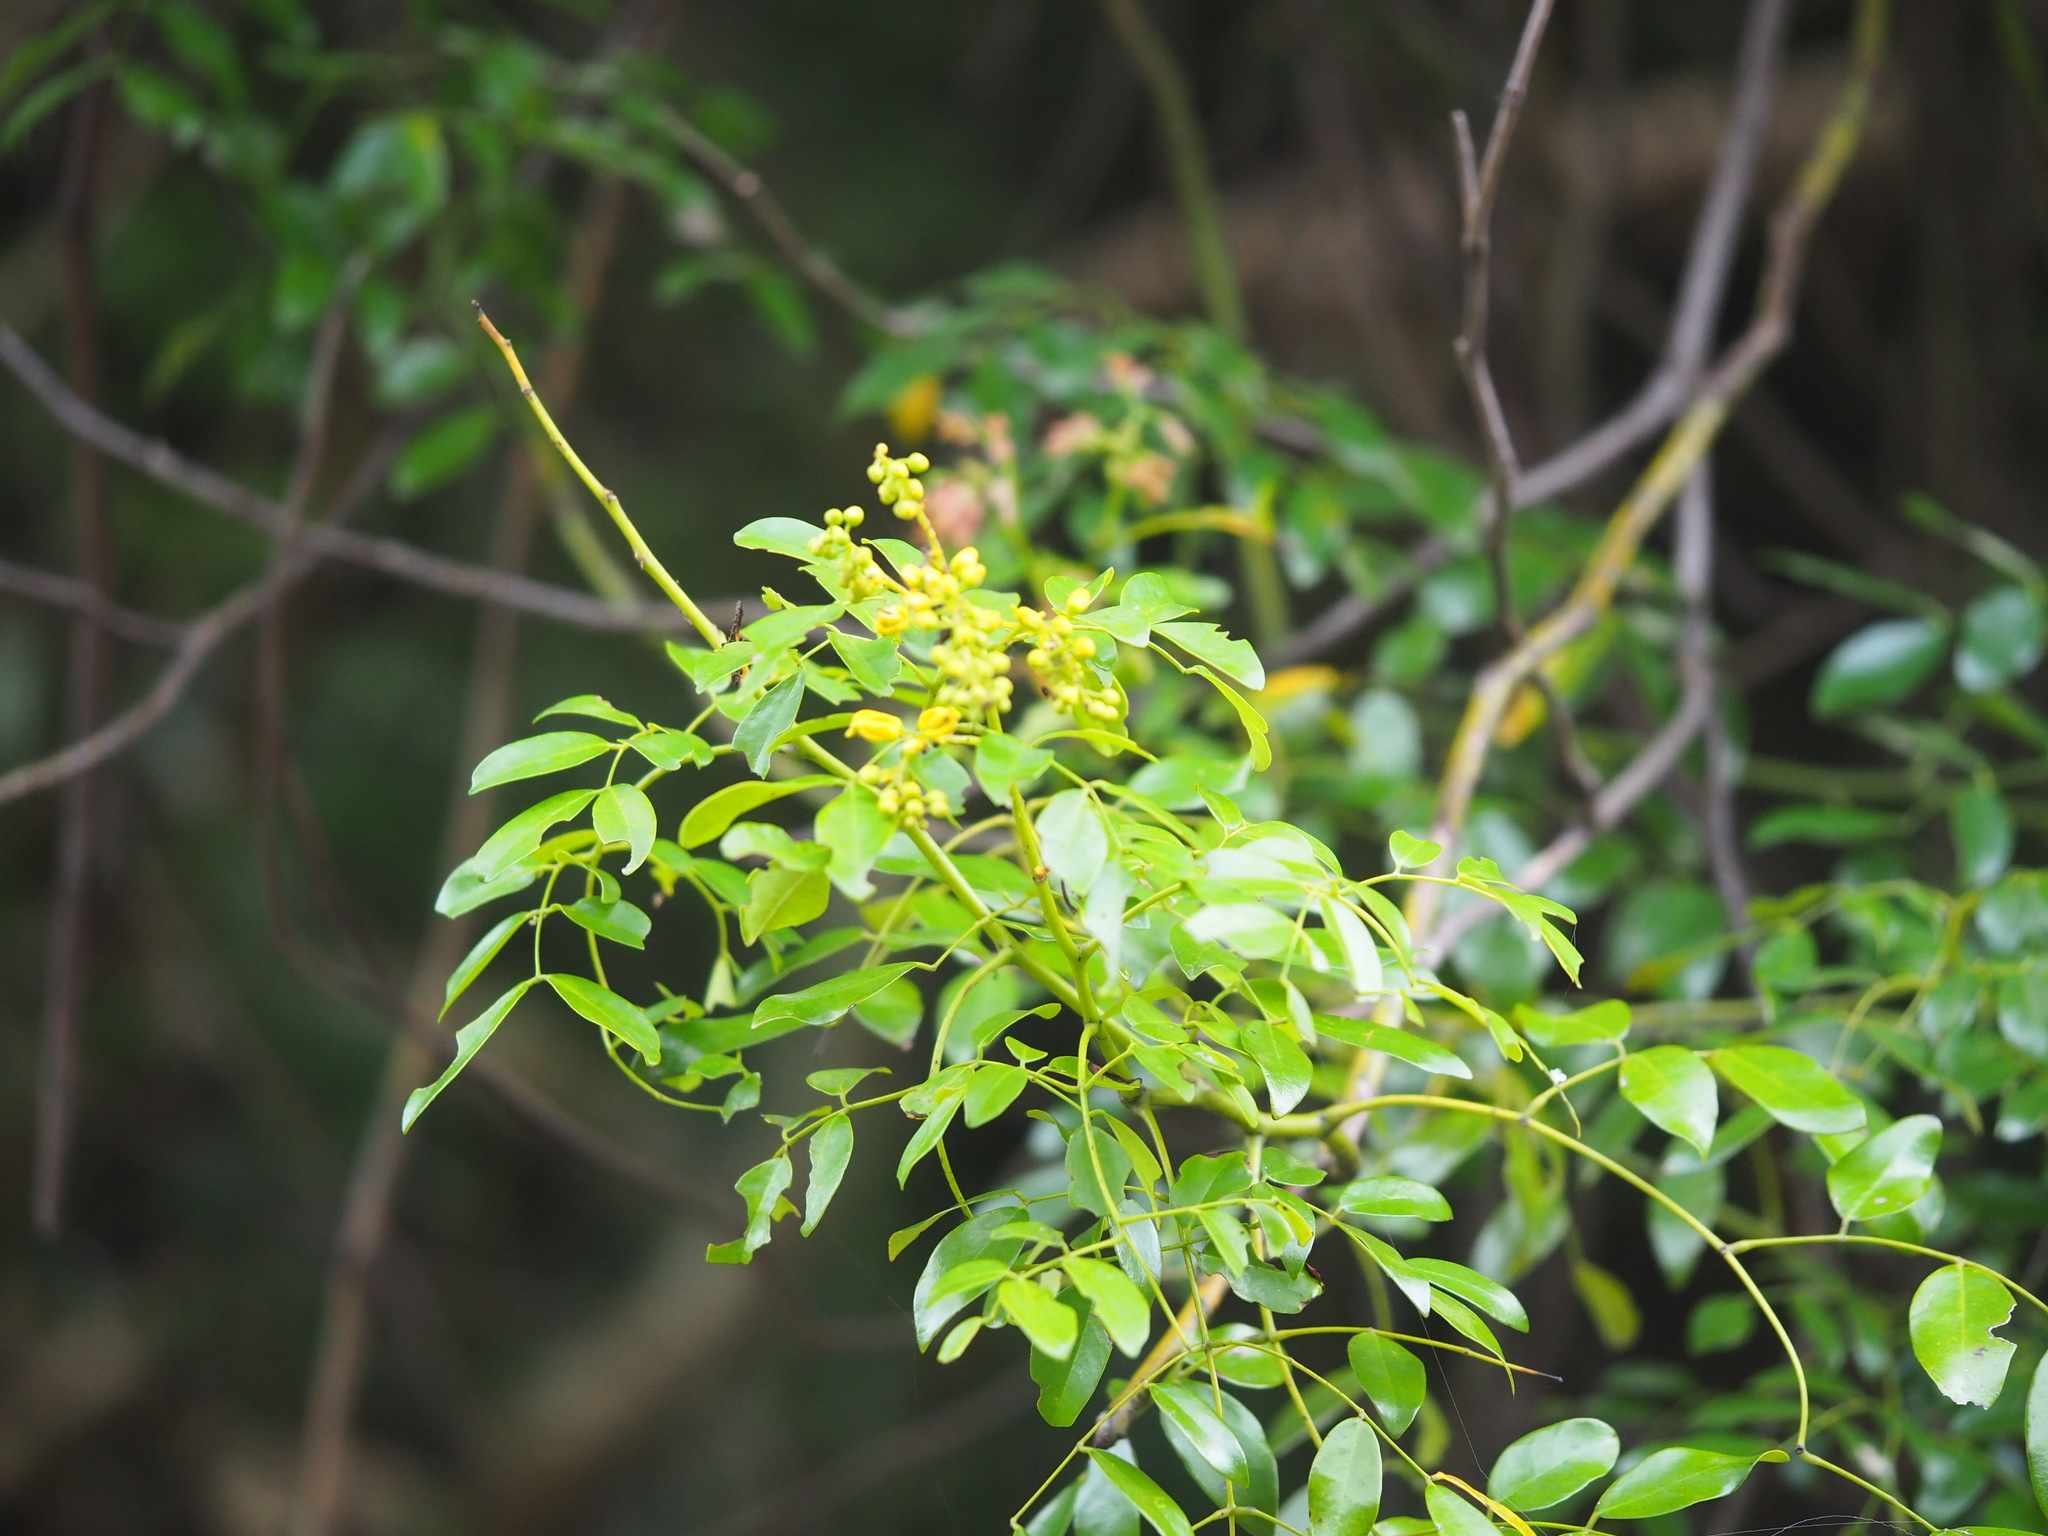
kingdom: Plantae
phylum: Tracheophyta
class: Magnoliopsida
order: Fabales
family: Fabaceae
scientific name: Fabaceae
